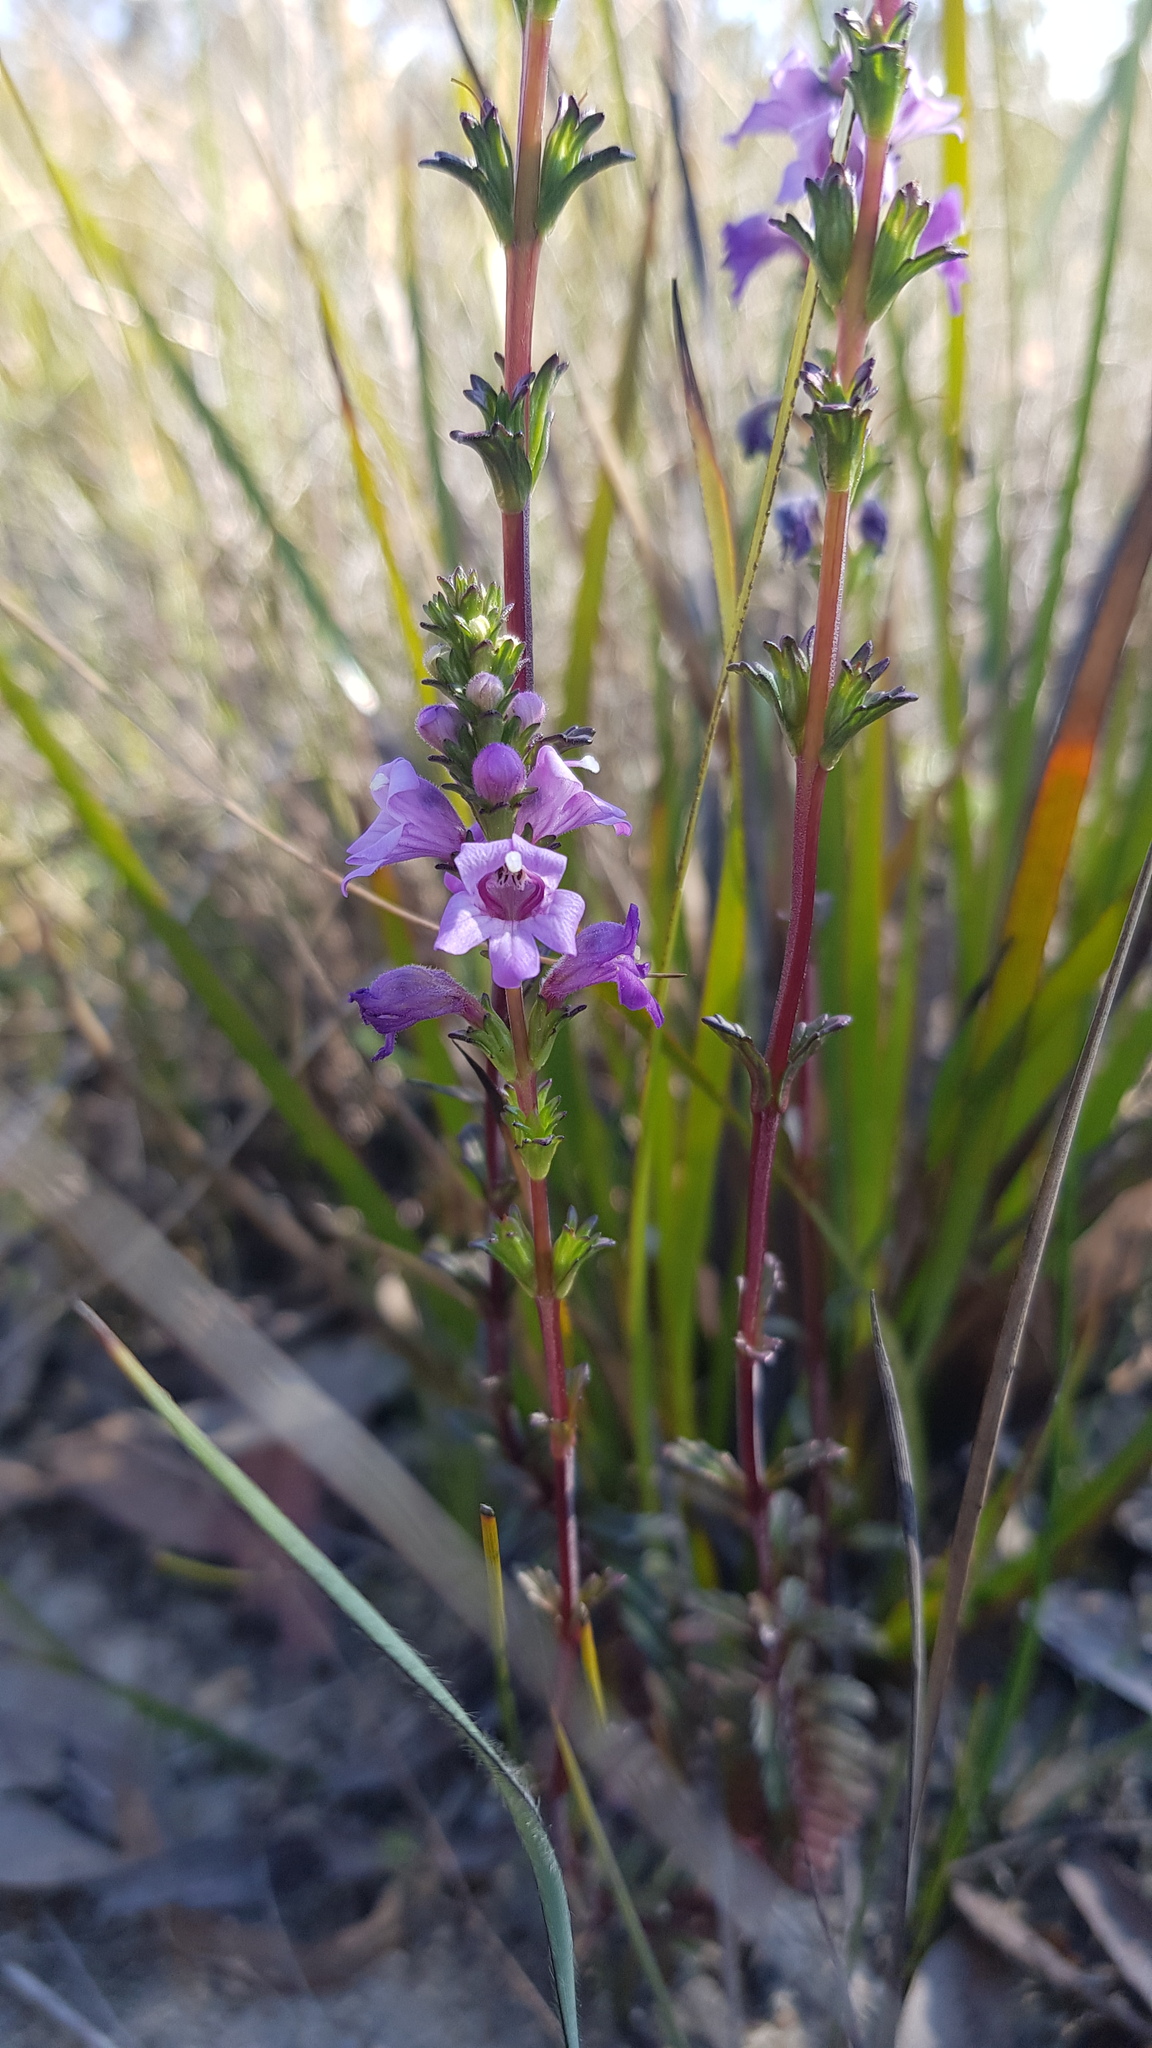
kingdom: Plantae
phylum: Tracheophyta
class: Magnoliopsida
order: Lamiales
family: Orobanchaceae
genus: Euphrasia
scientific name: Euphrasia collina
